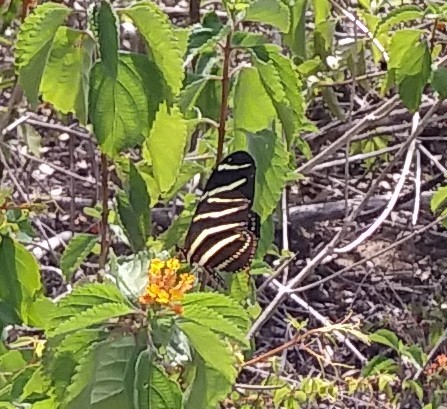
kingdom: Animalia
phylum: Arthropoda
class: Insecta
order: Lepidoptera
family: Nymphalidae
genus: Heliconius
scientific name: Heliconius charithonia
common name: Zebra long wing
